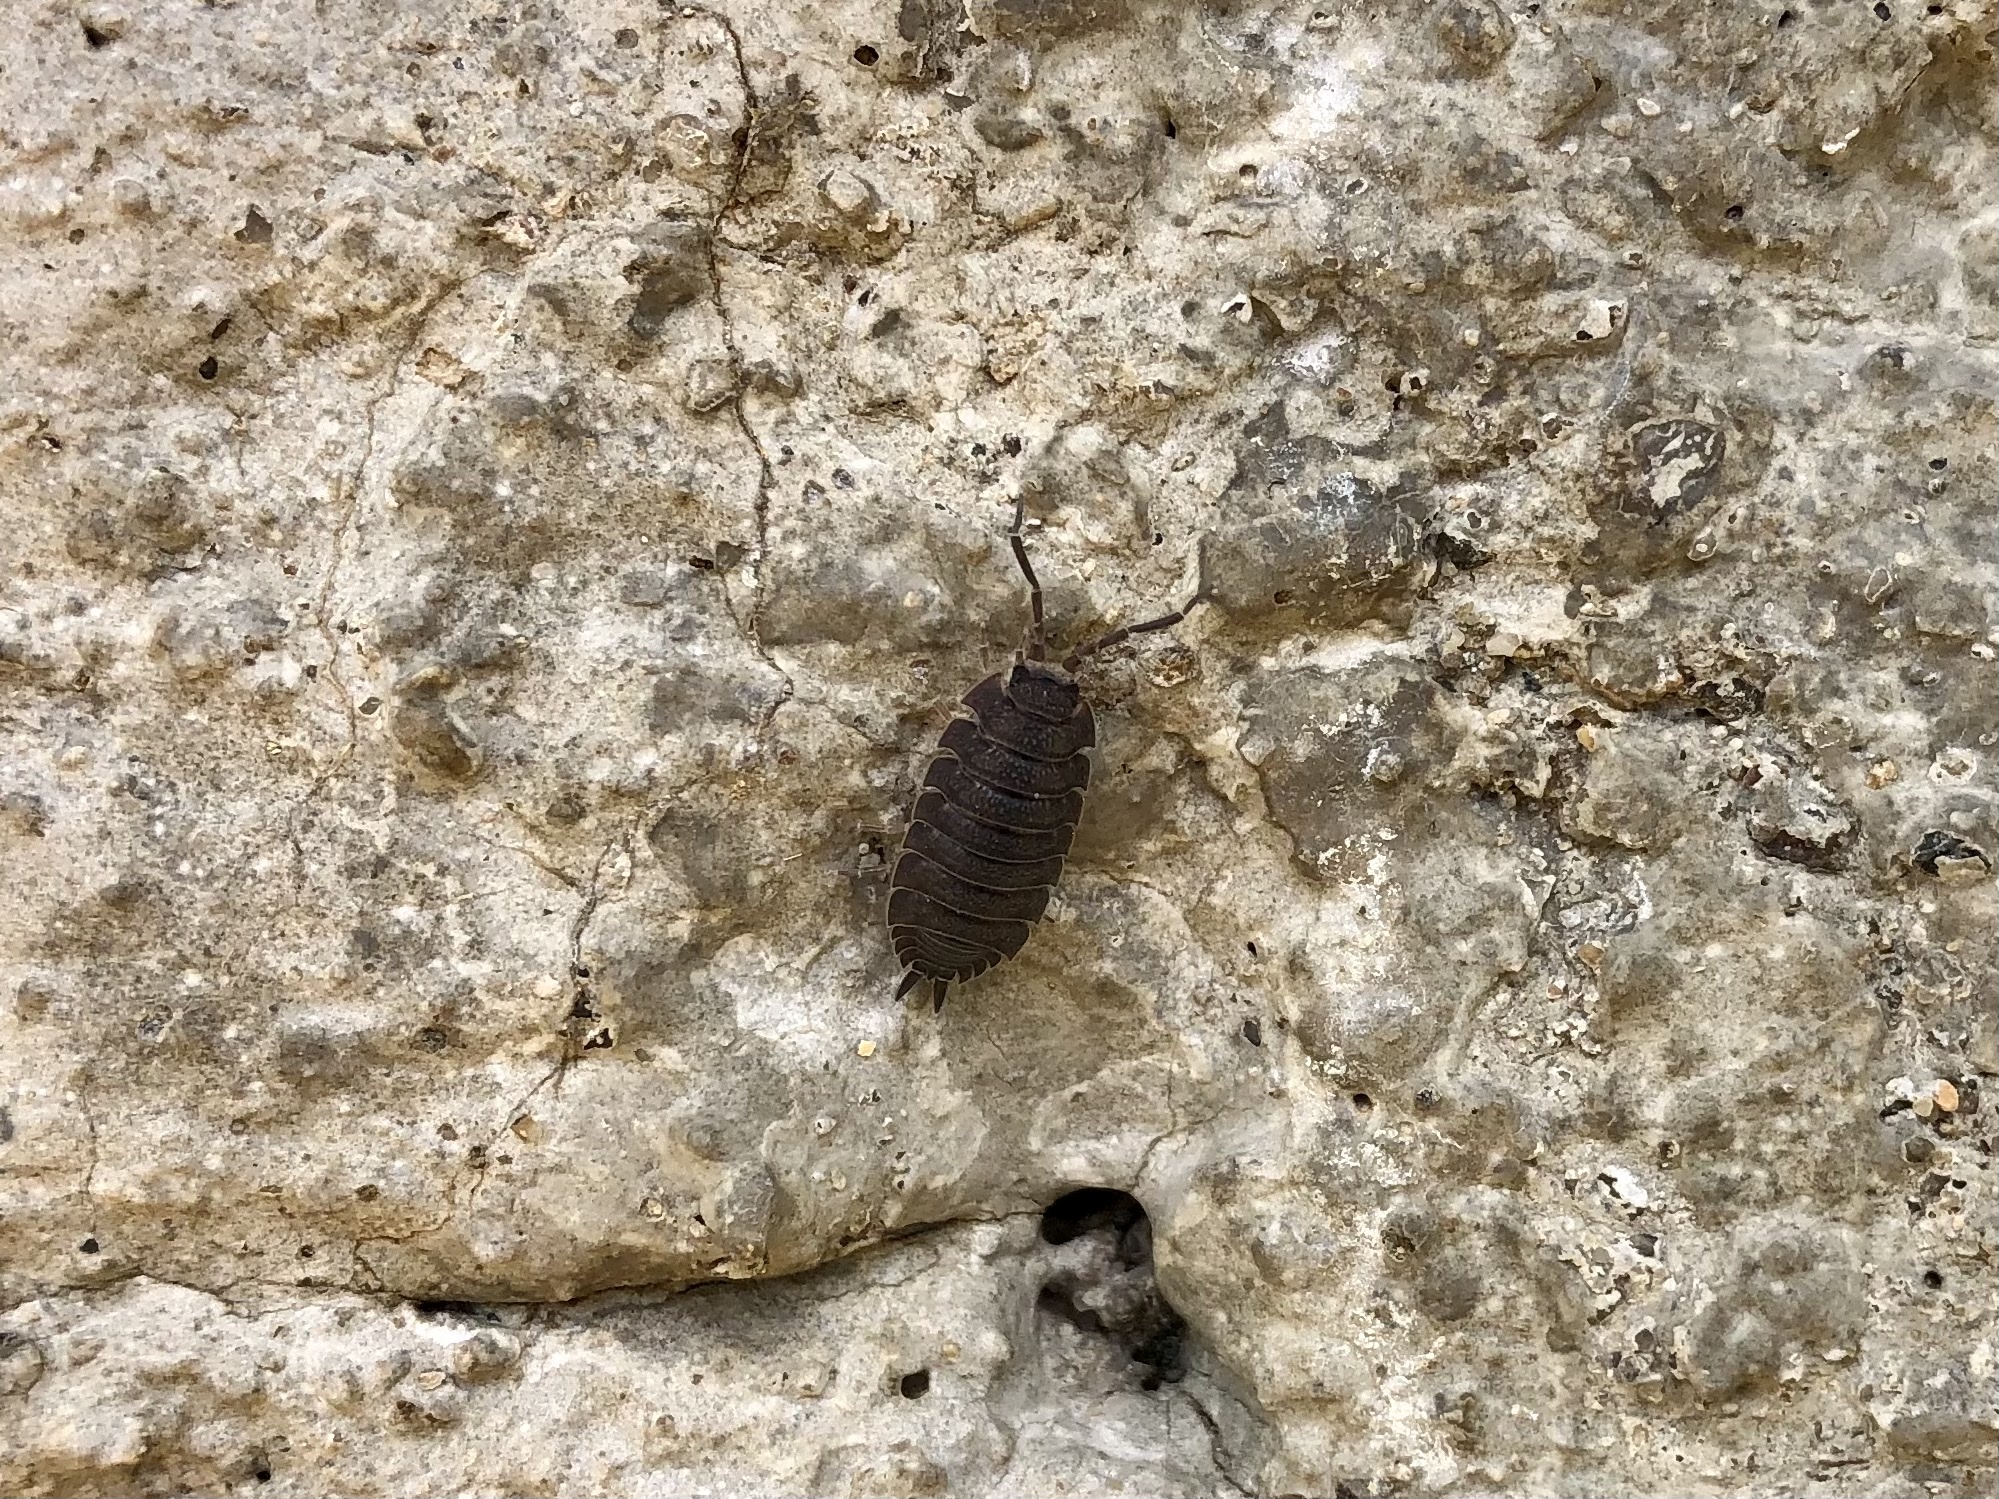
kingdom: Animalia
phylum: Arthropoda
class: Malacostraca
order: Isopoda
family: Porcellionidae
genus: Porcellio
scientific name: Porcellio scaber
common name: Common rough woodlouse
